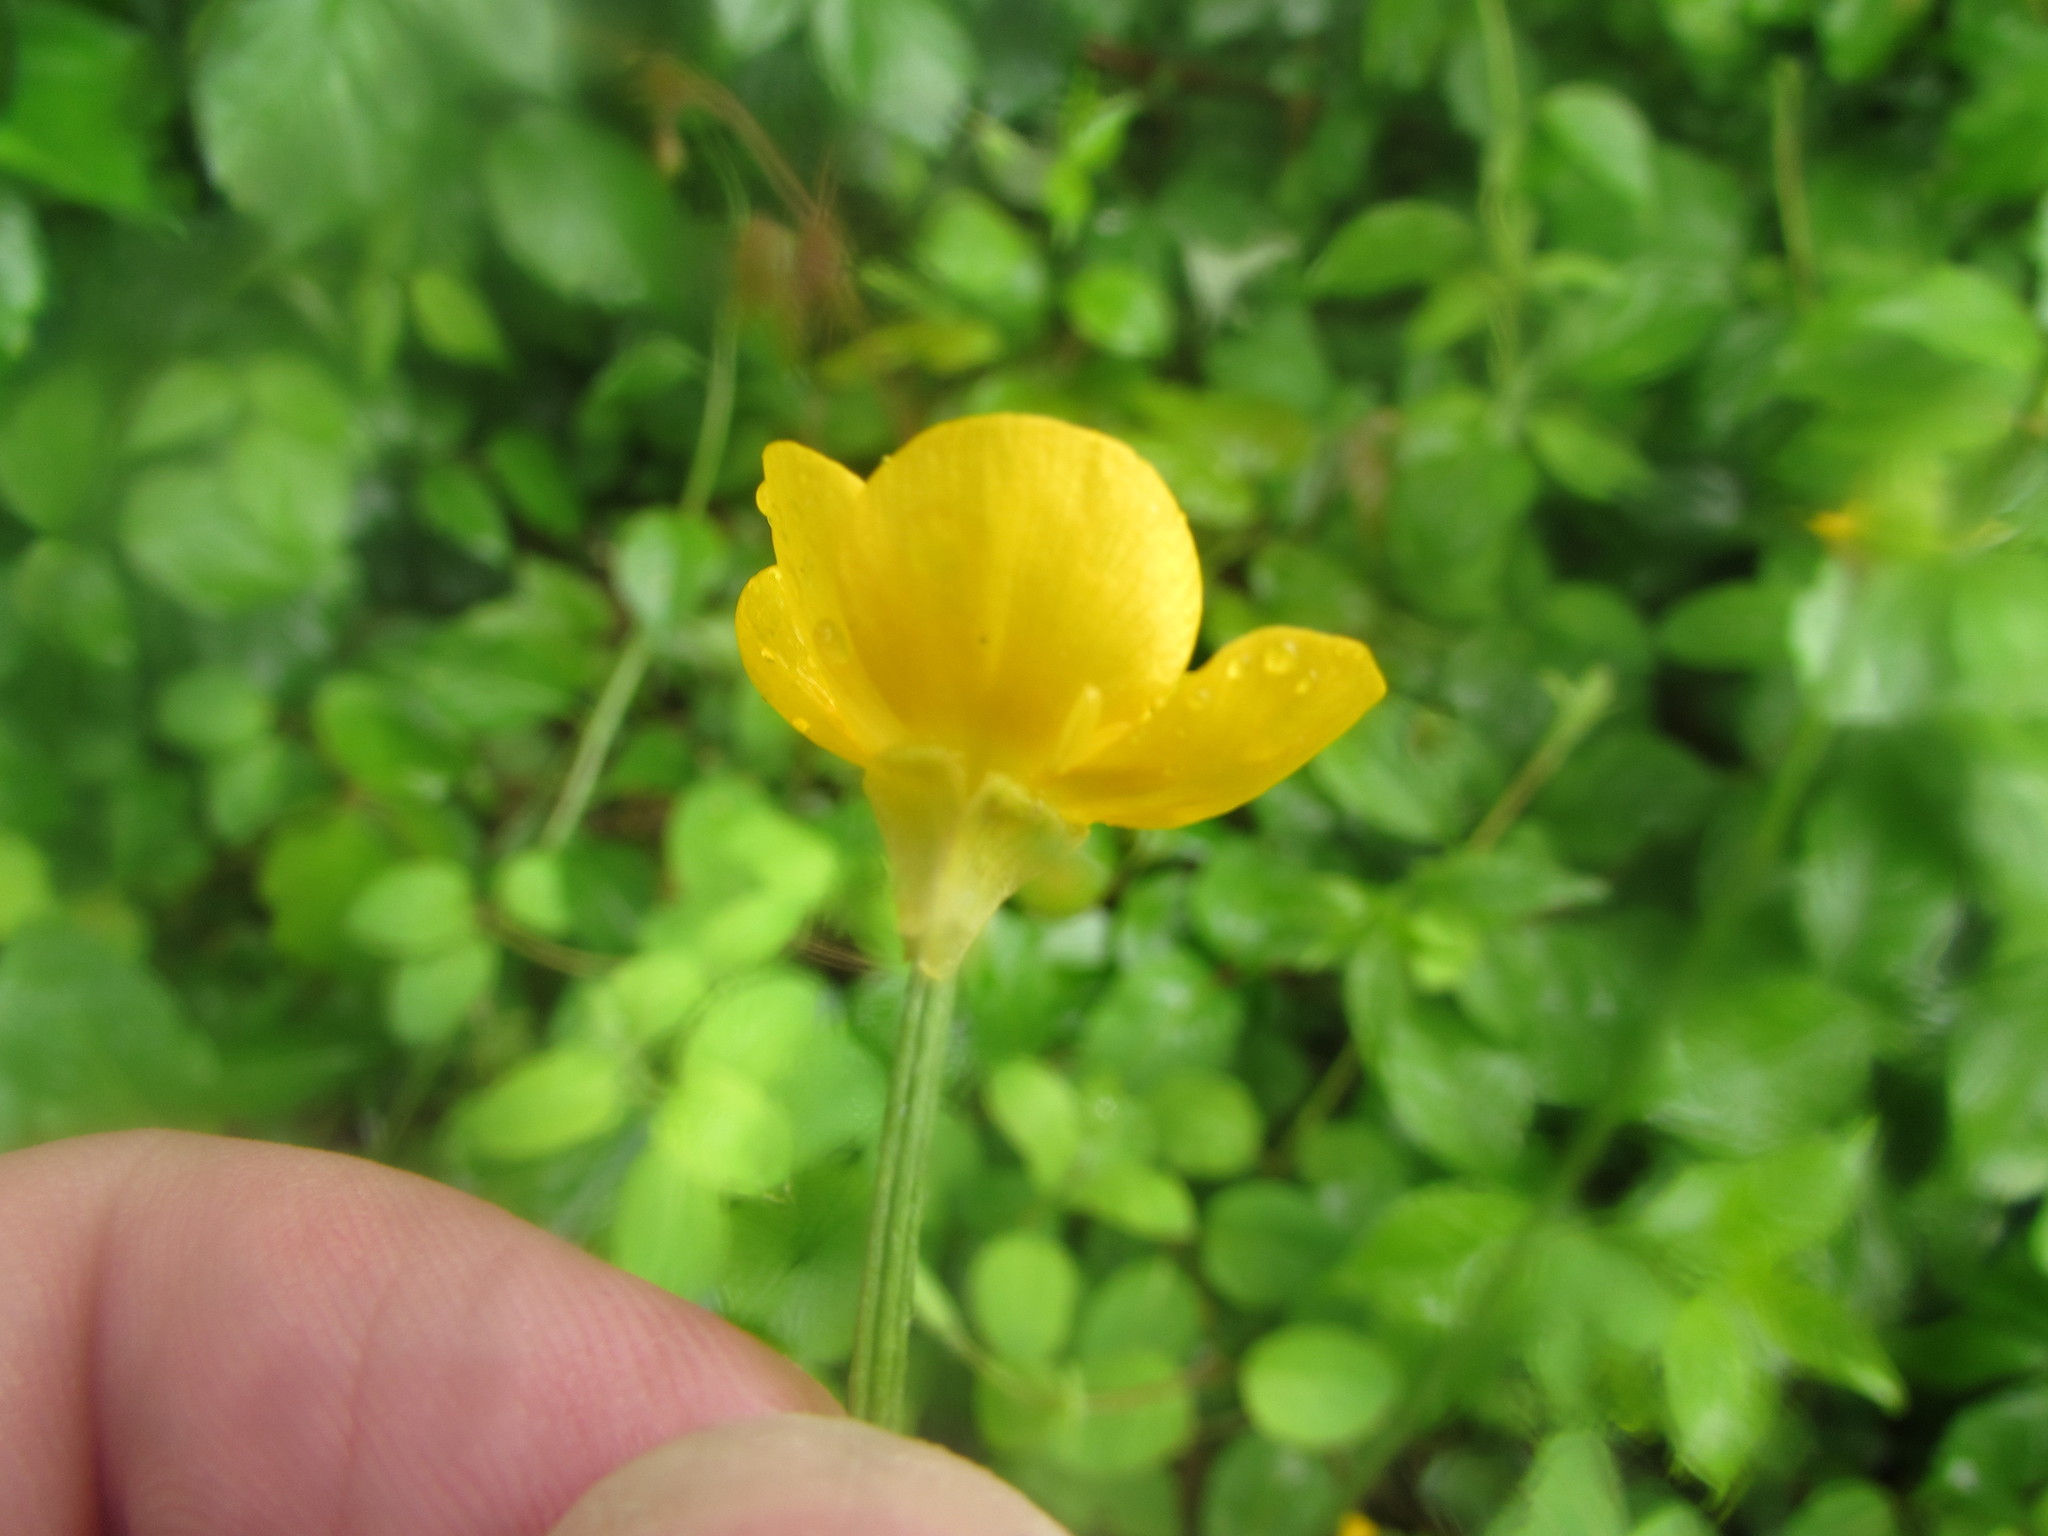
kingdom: Plantae
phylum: Tracheophyta
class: Magnoliopsida
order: Ranunculales
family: Ranunculaceae
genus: Ranunculus
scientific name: Ranunculus bulbosus
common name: Bulbous buttercup
